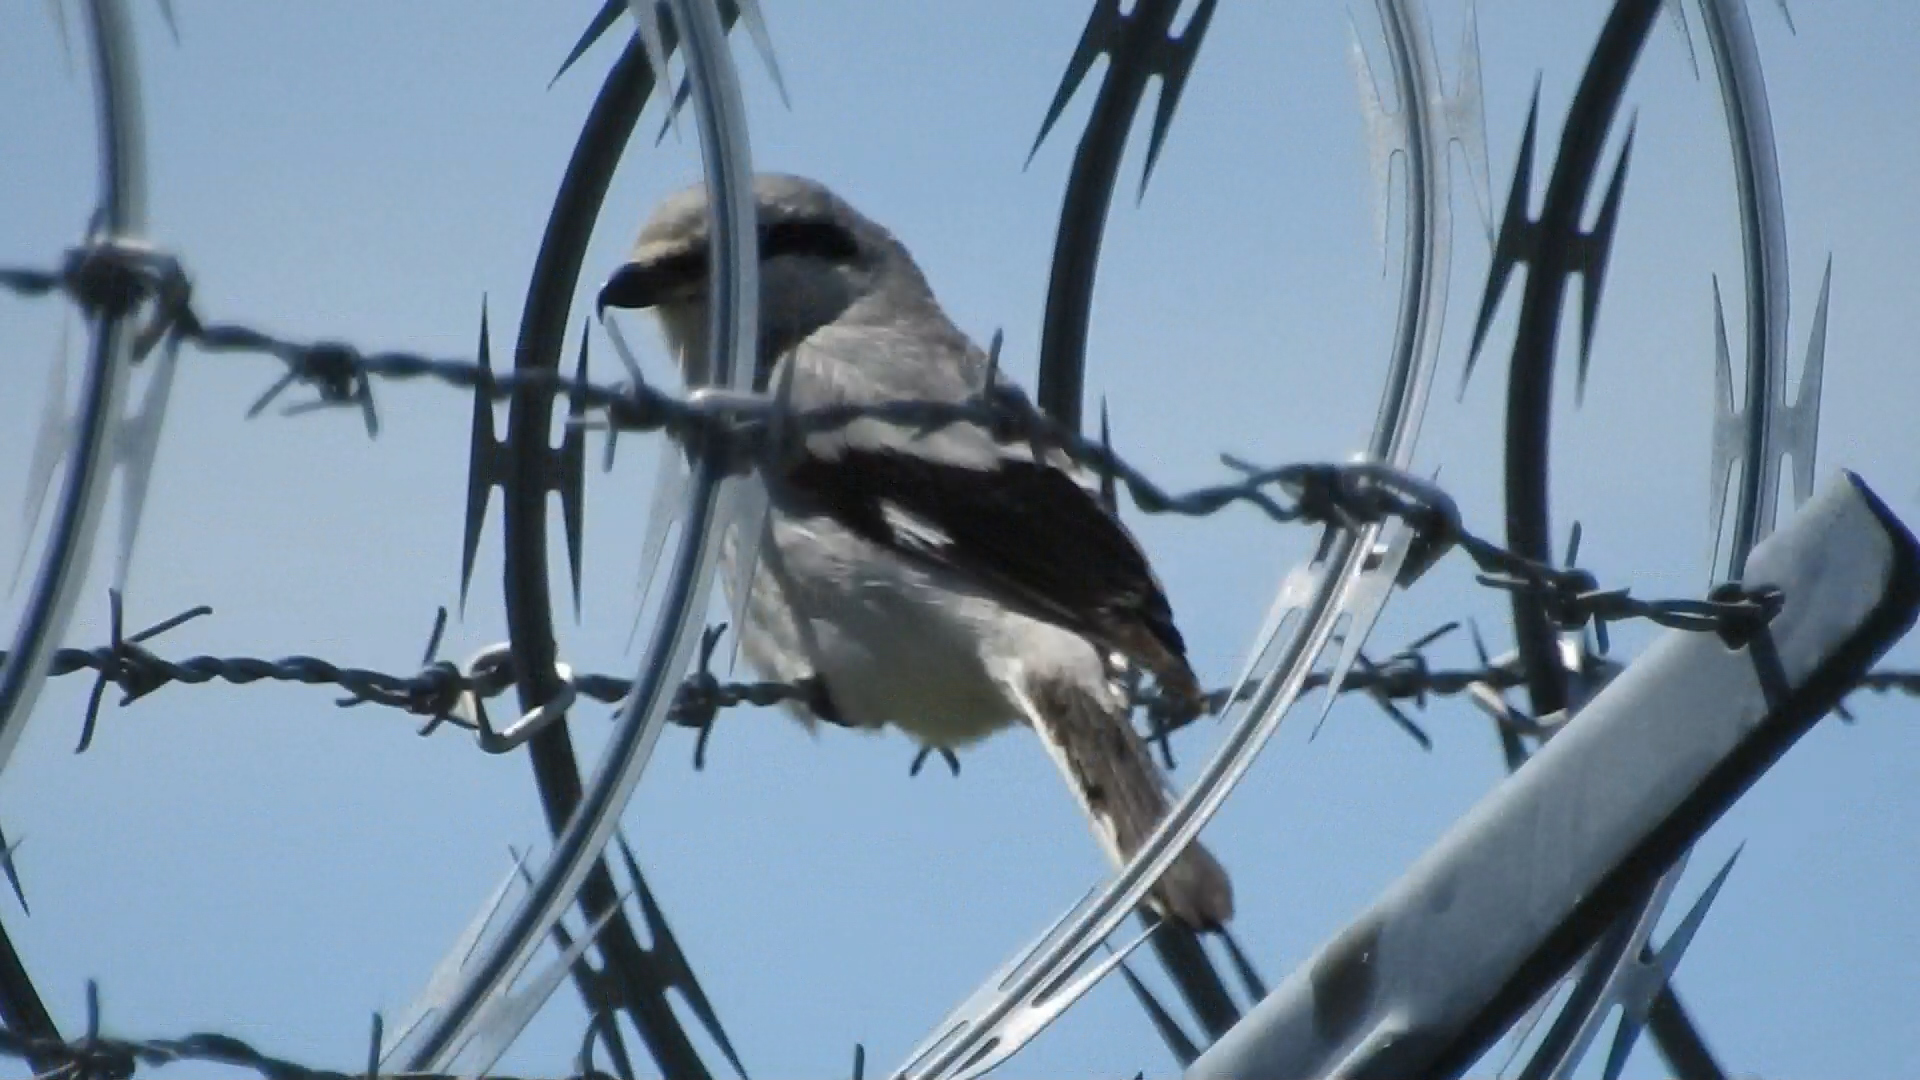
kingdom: Animalia
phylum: Chordata
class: Aves
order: Passeriformes
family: Laniidae
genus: Lanius
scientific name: Lanius borealis
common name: Northern shrike
